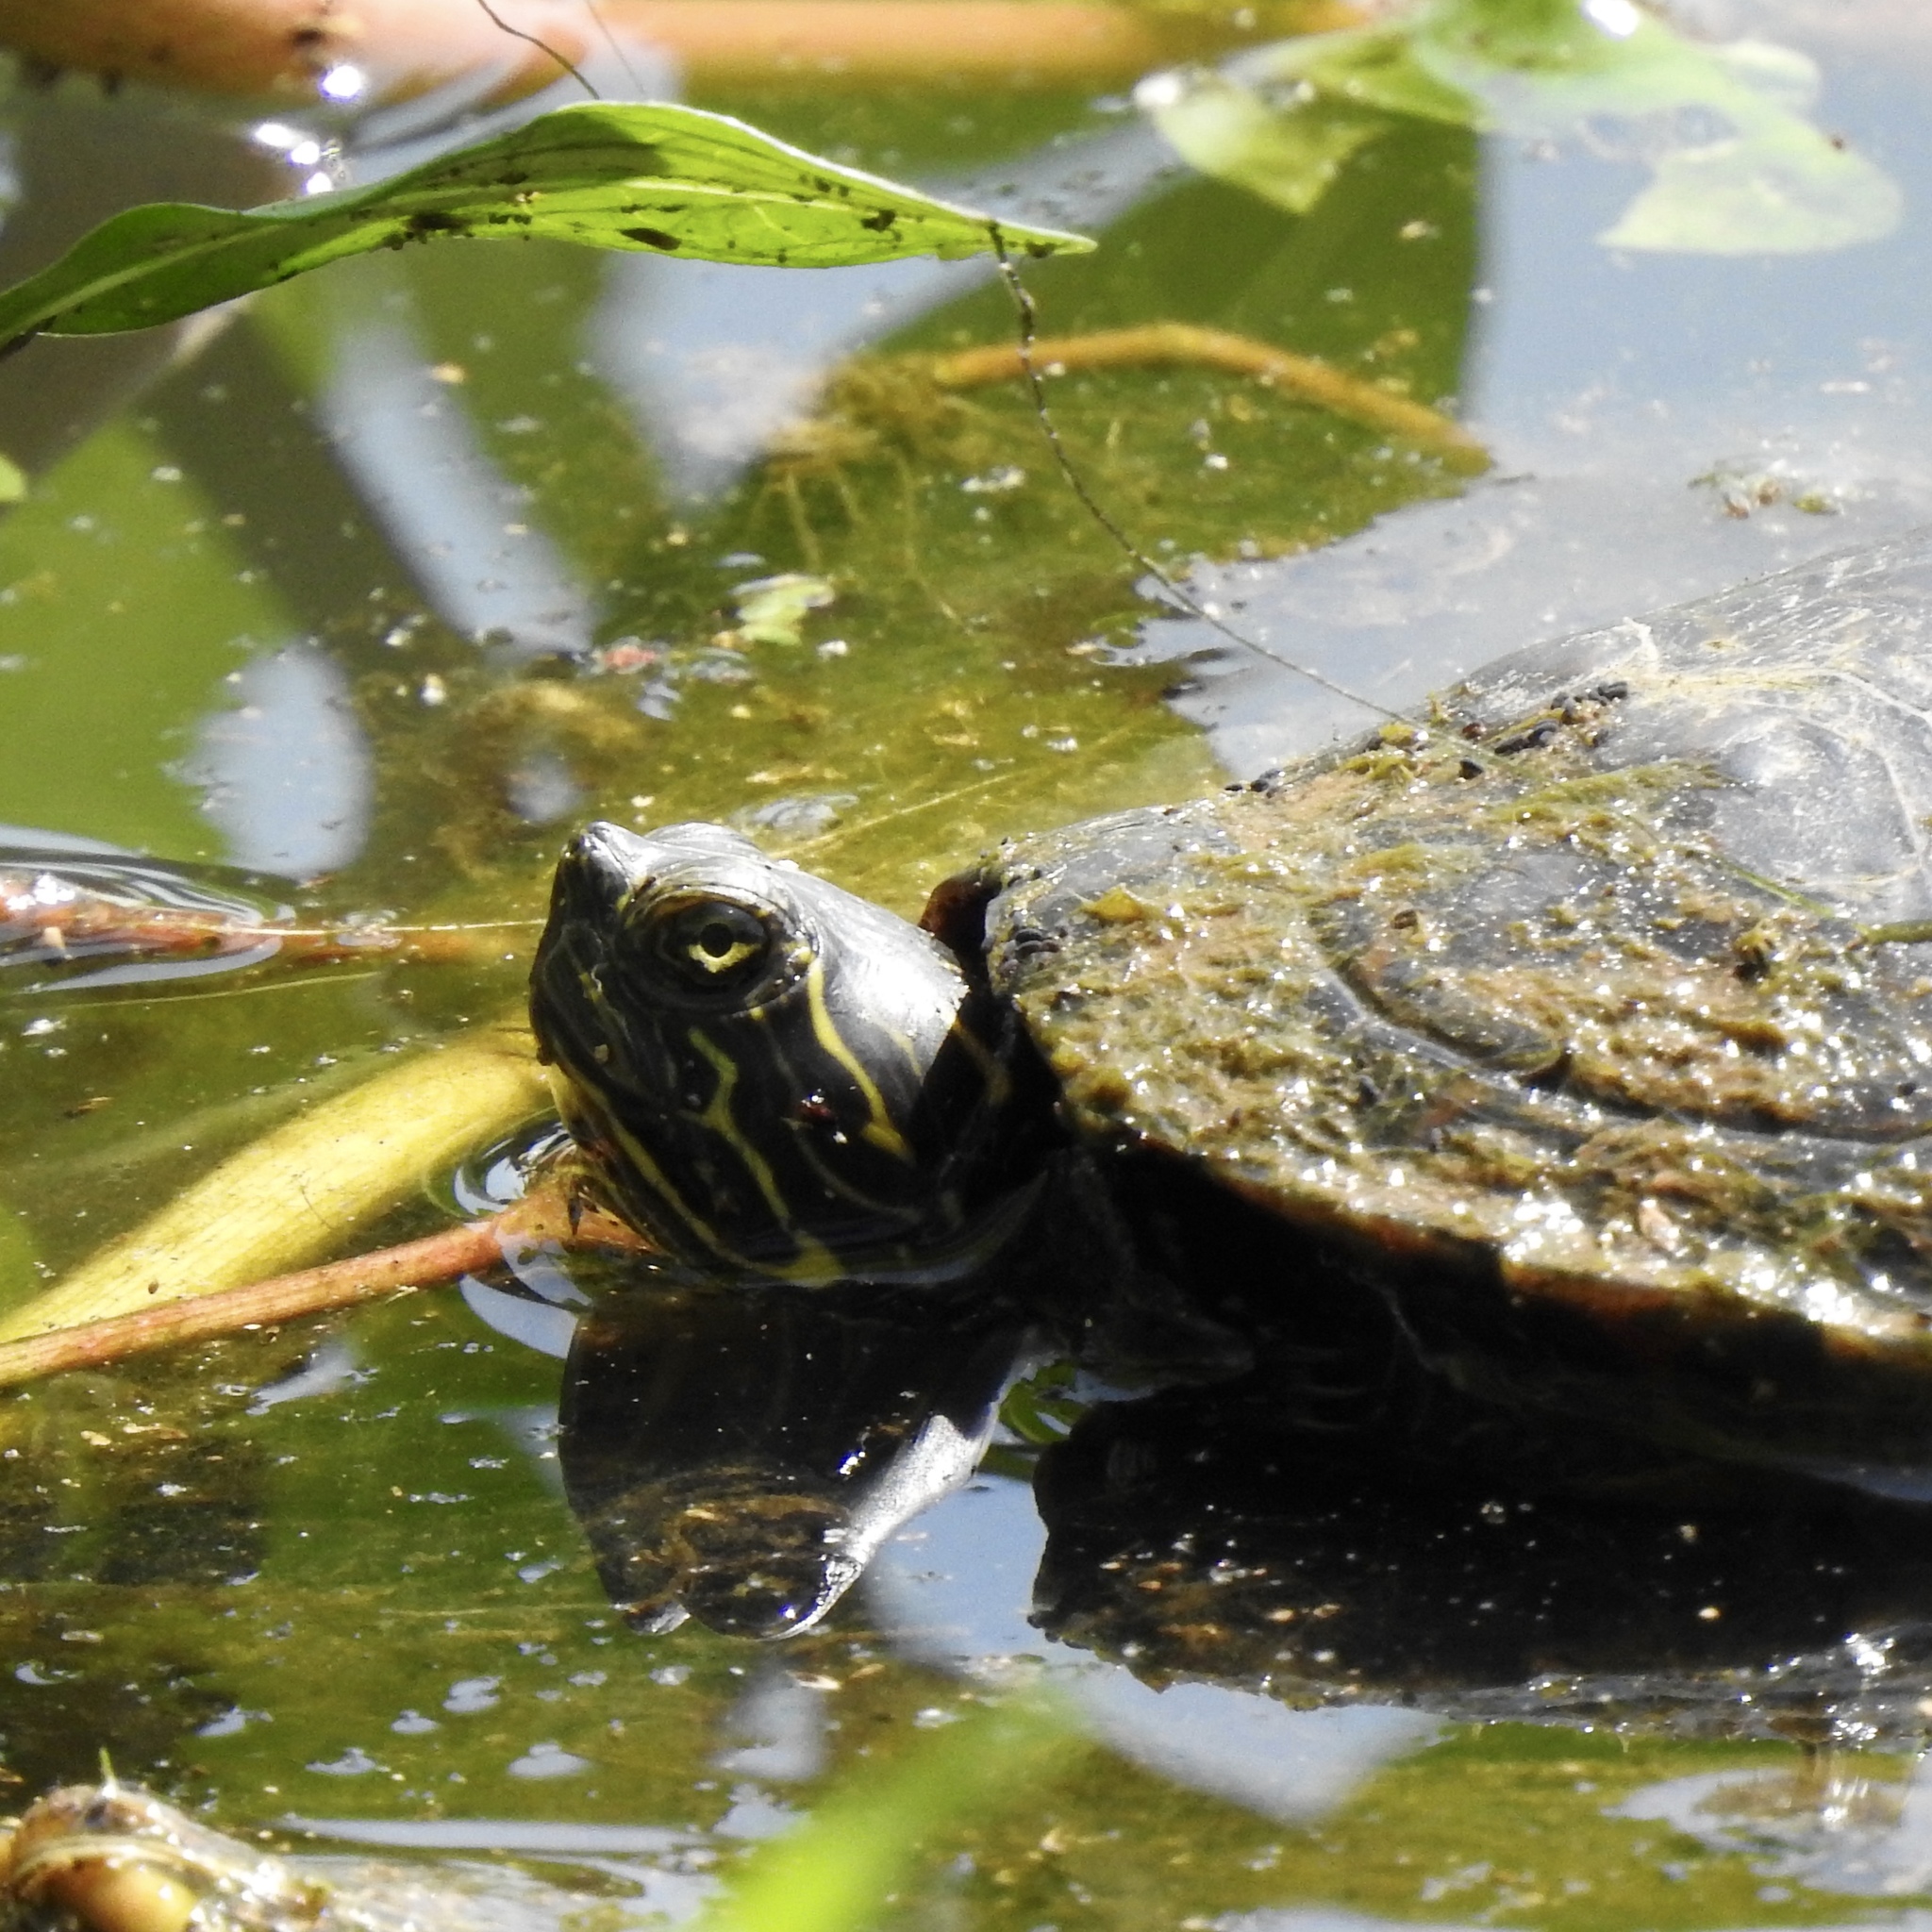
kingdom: Animalia
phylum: Chordata
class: Testudines
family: Emydidae
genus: Pseudemys
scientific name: Pseudemys concinna
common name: Eastern river cooter
